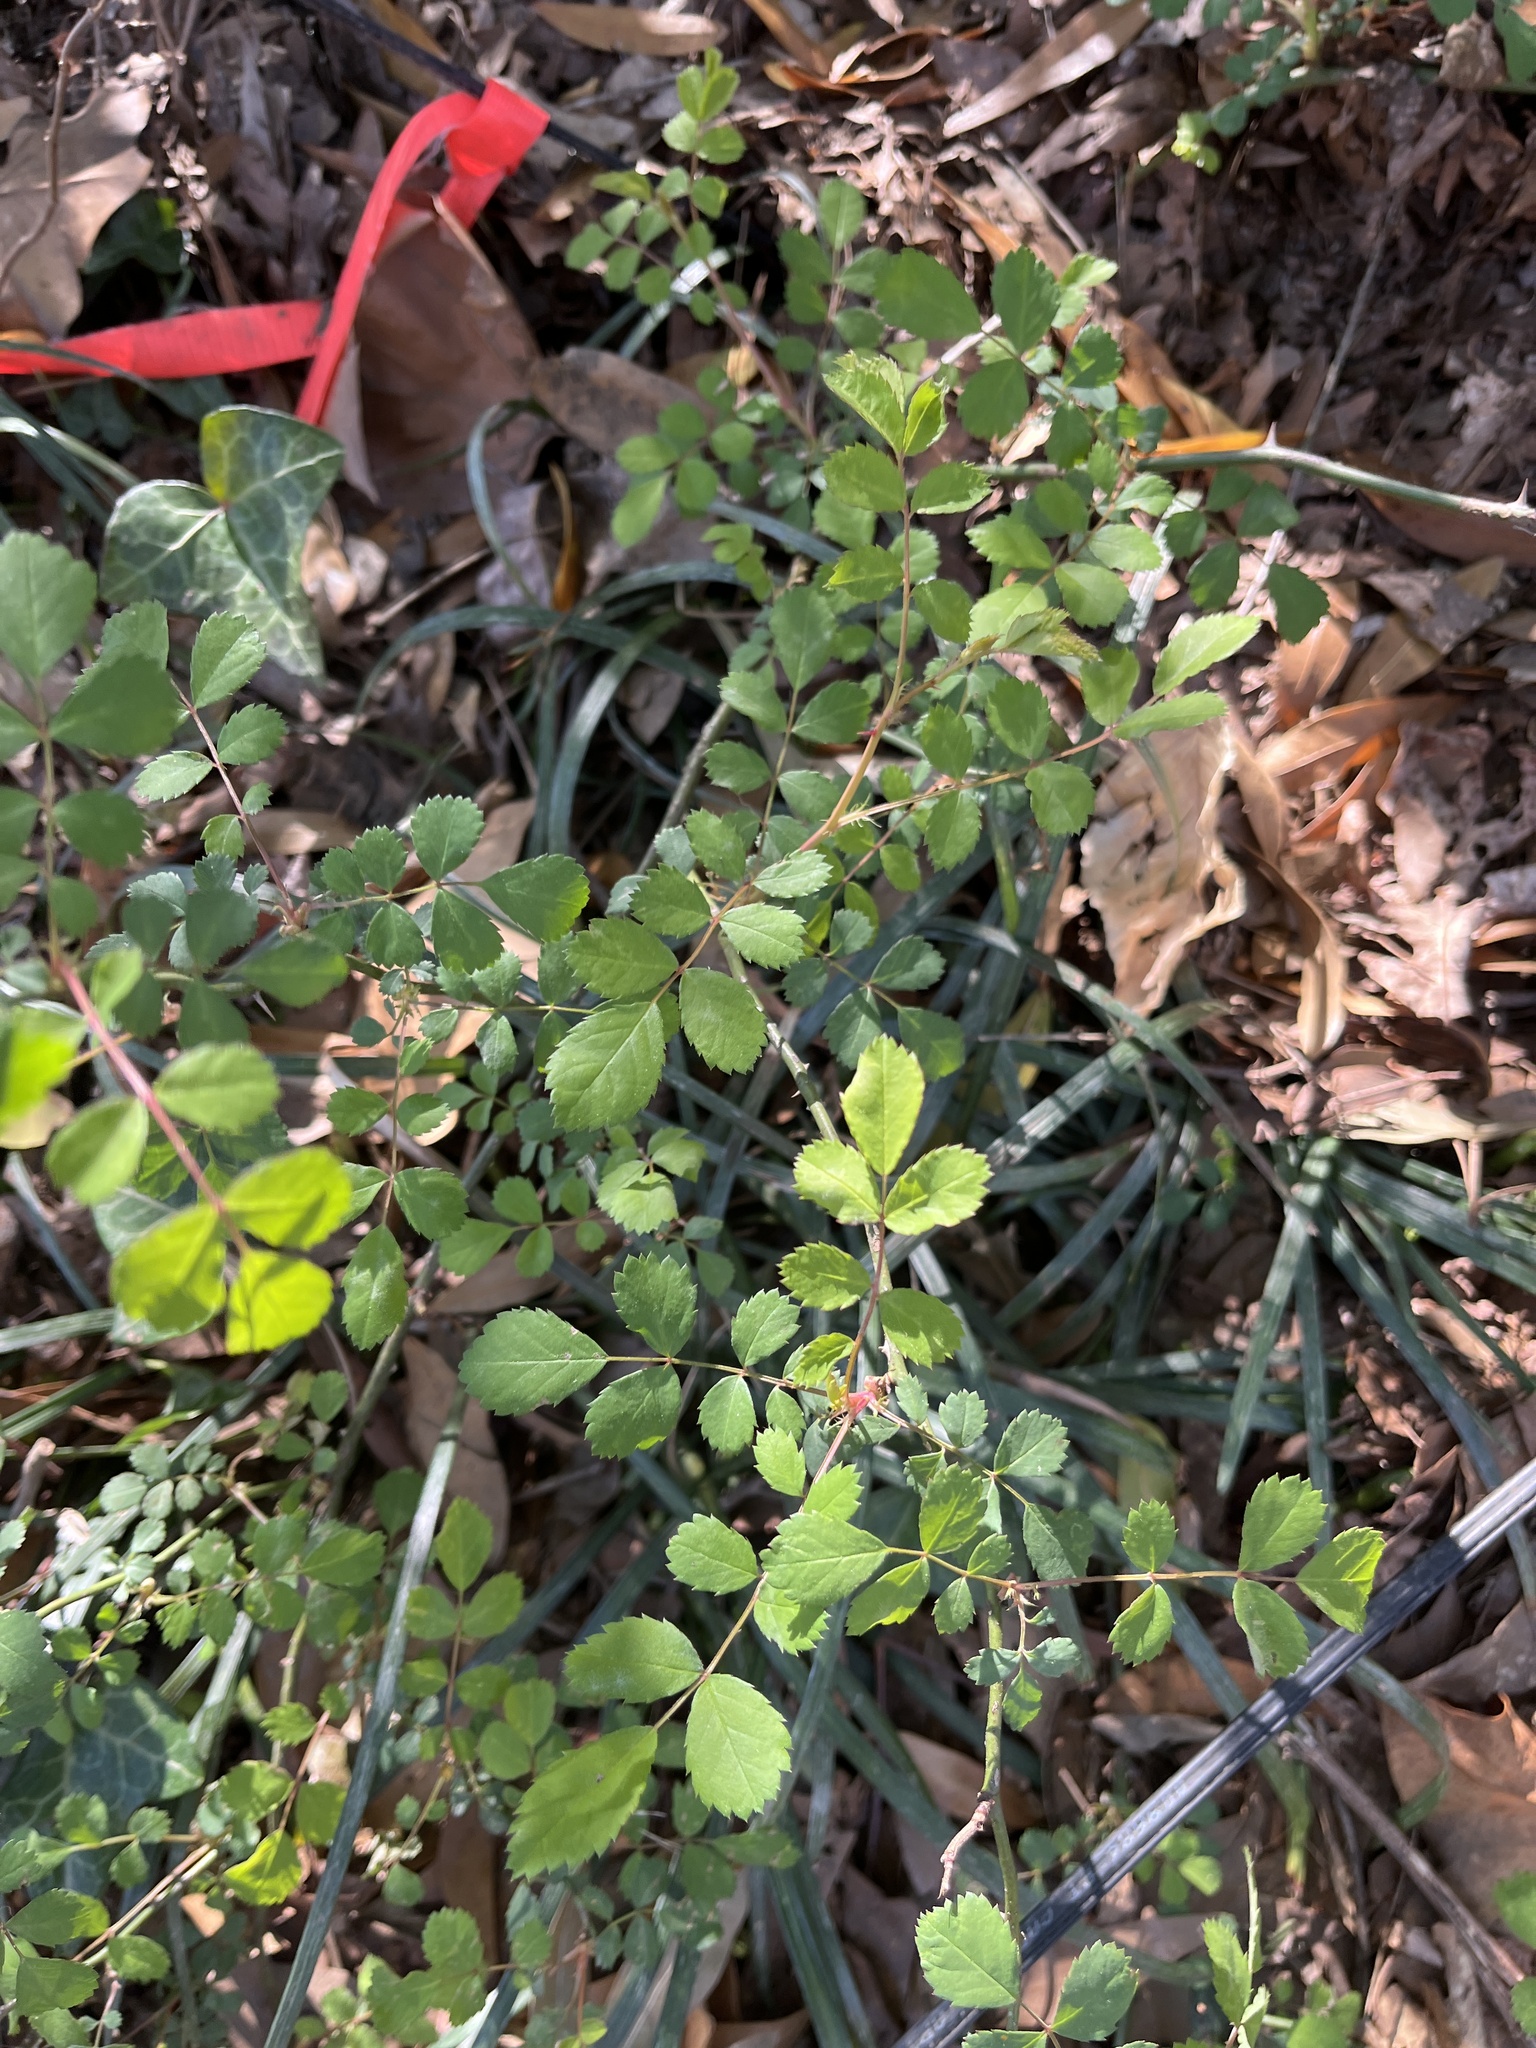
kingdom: Plantae
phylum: Tracheophyta
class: Magnoliopsida
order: Rosales
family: Rosaceae
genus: Rosa
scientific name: Rosa multiflora
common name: Multiflora rose
